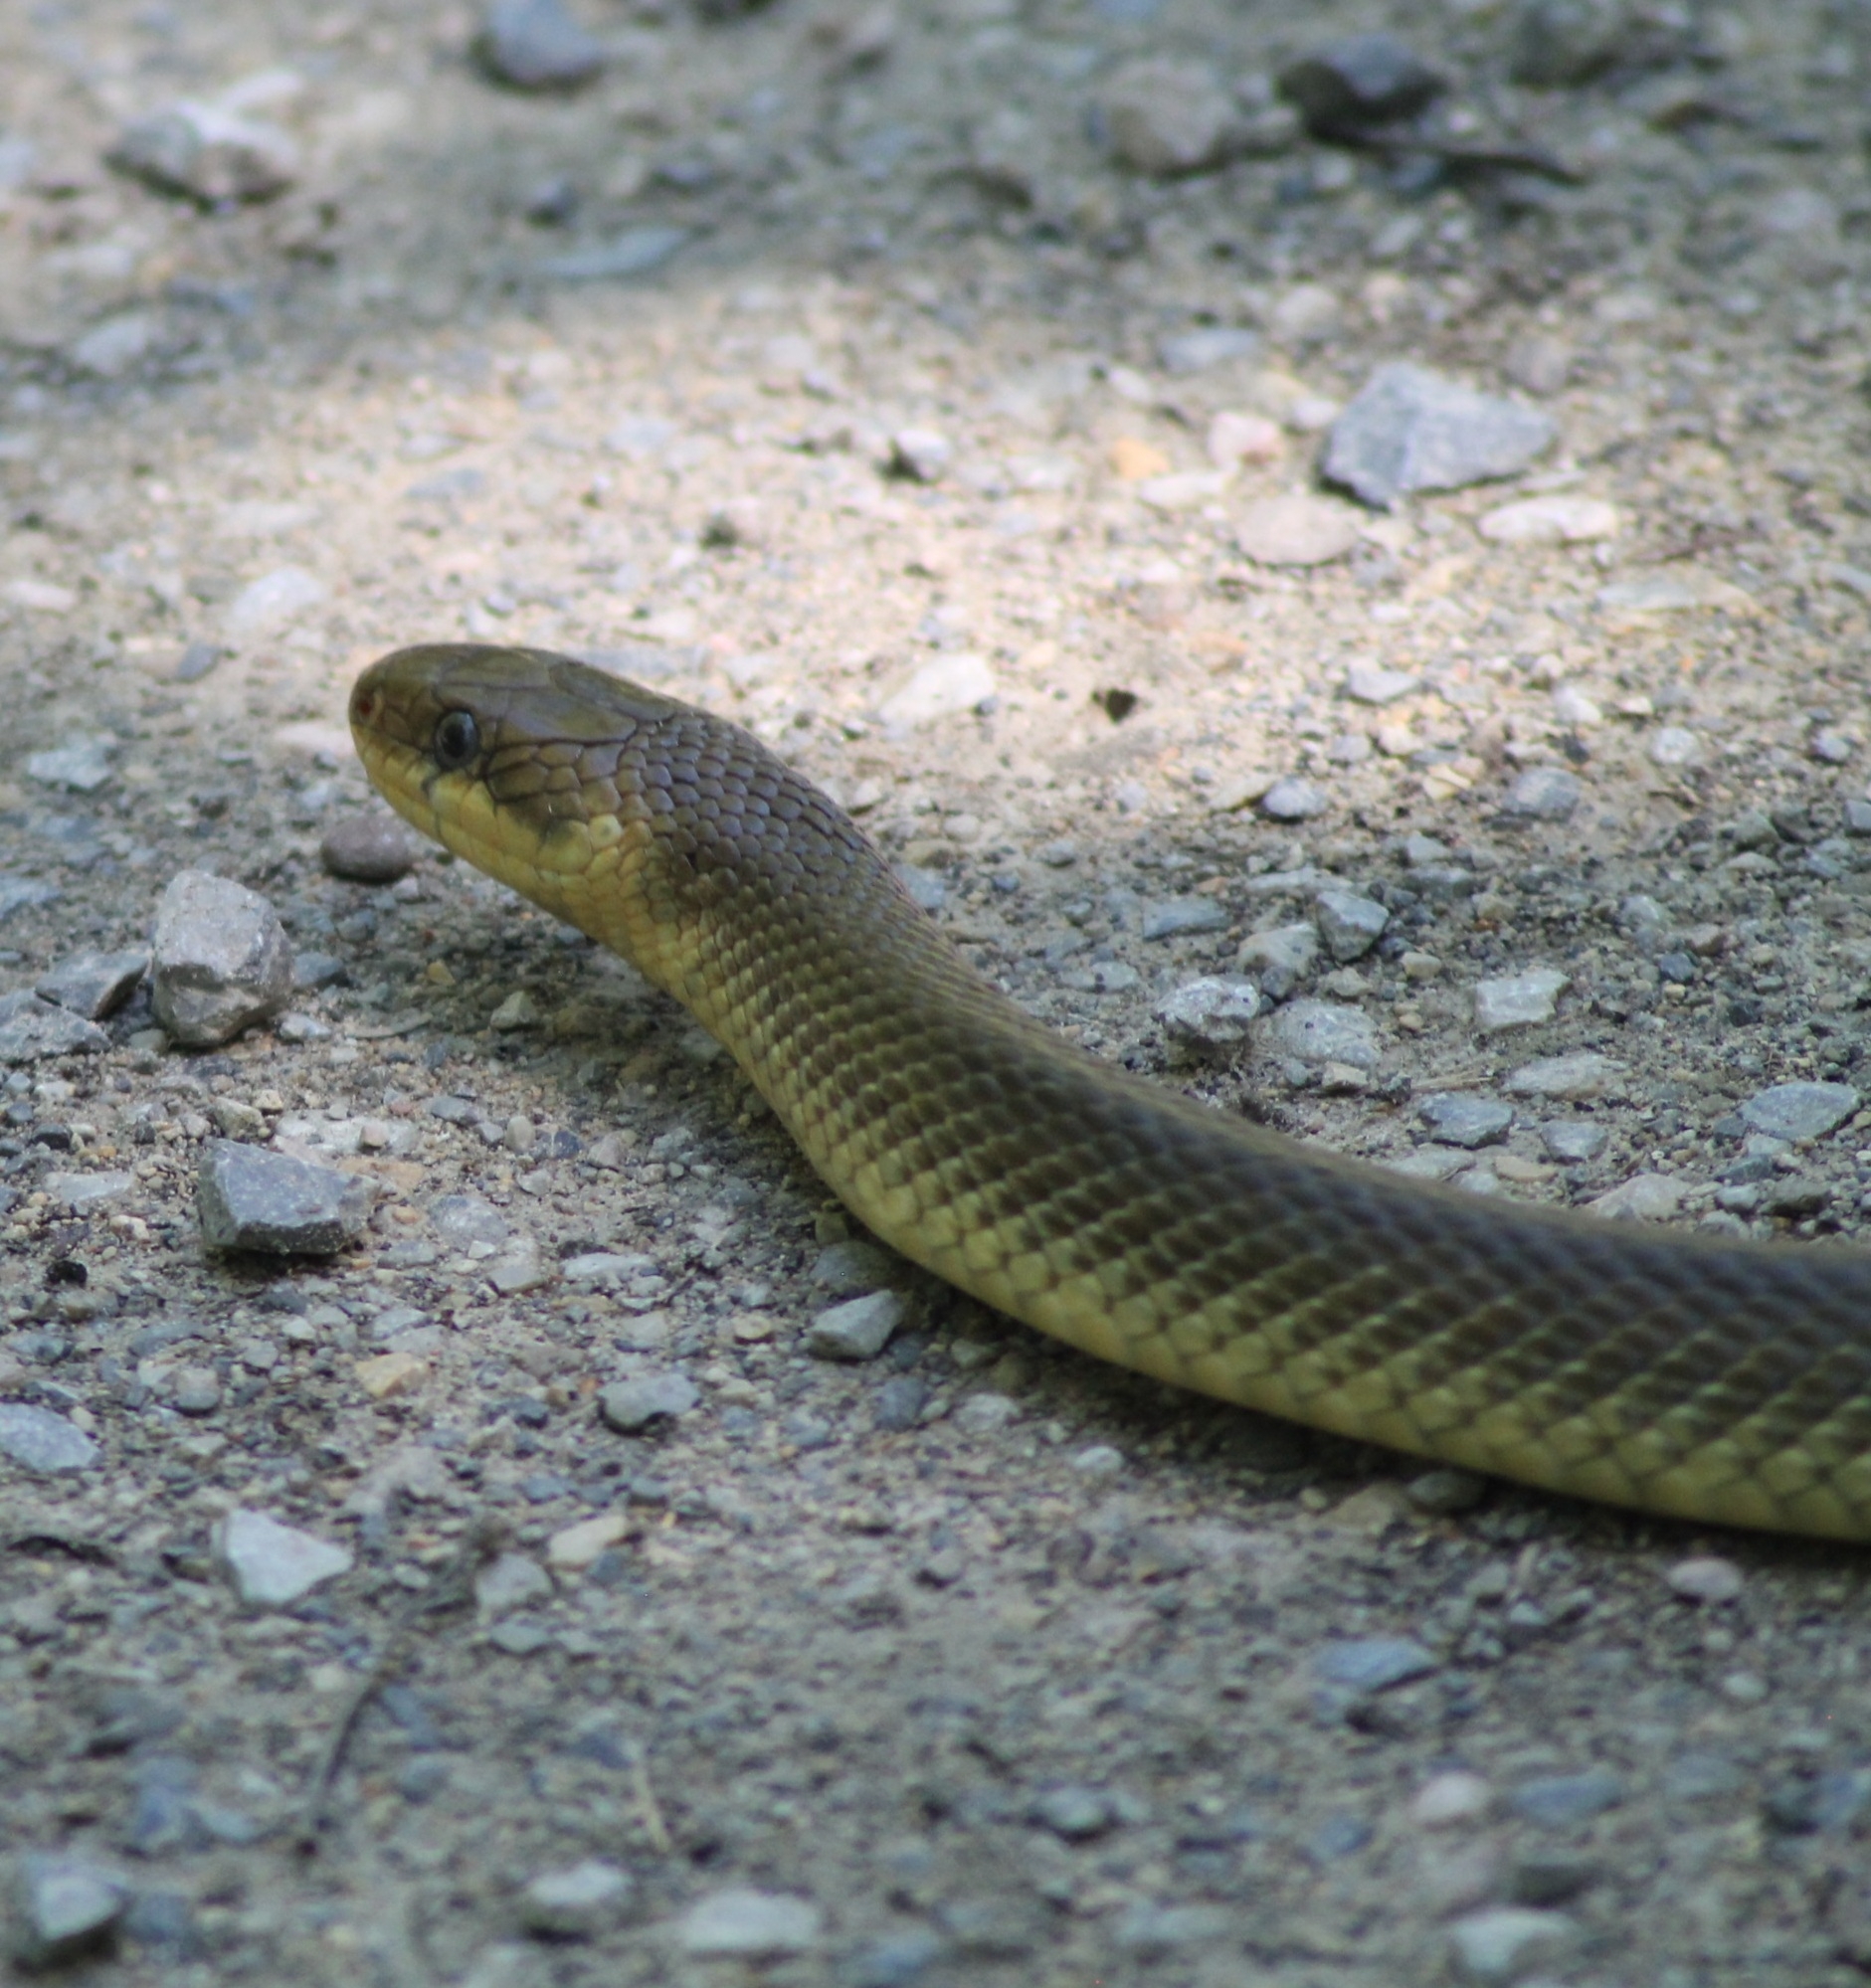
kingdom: Animalia
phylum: Chordata
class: Squamata
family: Colubridae
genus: Zamenis
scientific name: Zamenis longissimus
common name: Aesculapean snake
